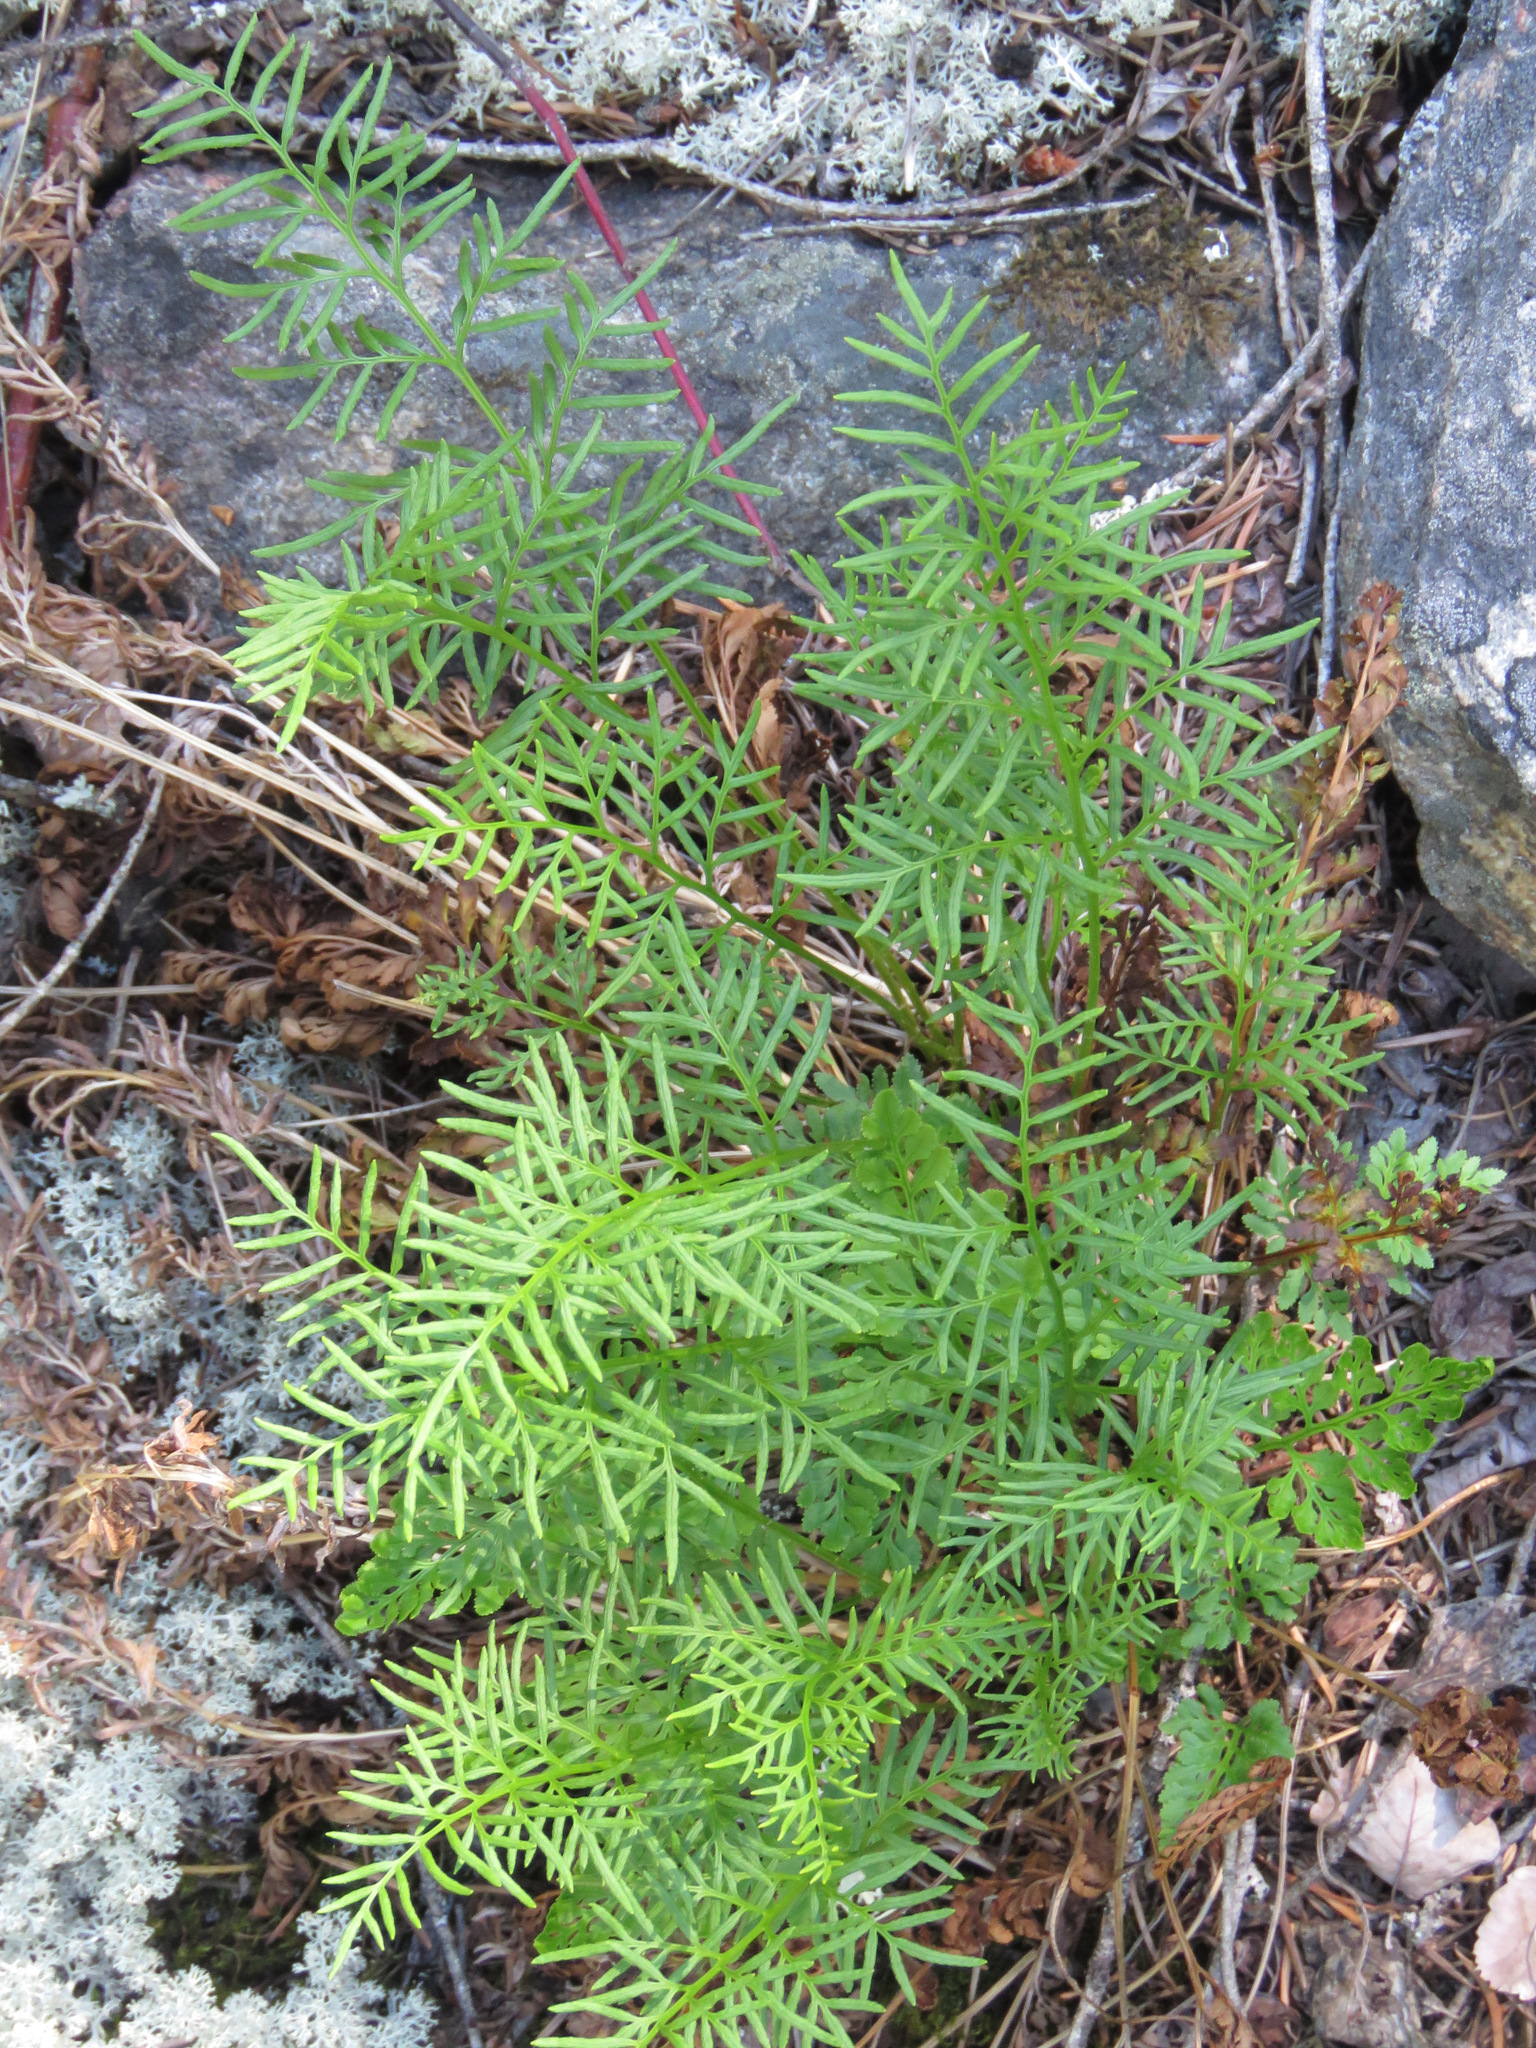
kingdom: Plantae
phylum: Tracheophyta
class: Polypodiopsida
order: Polypodiales
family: Pteridaceae
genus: Cryptogramma
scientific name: Cryptogramma acrostichoides
